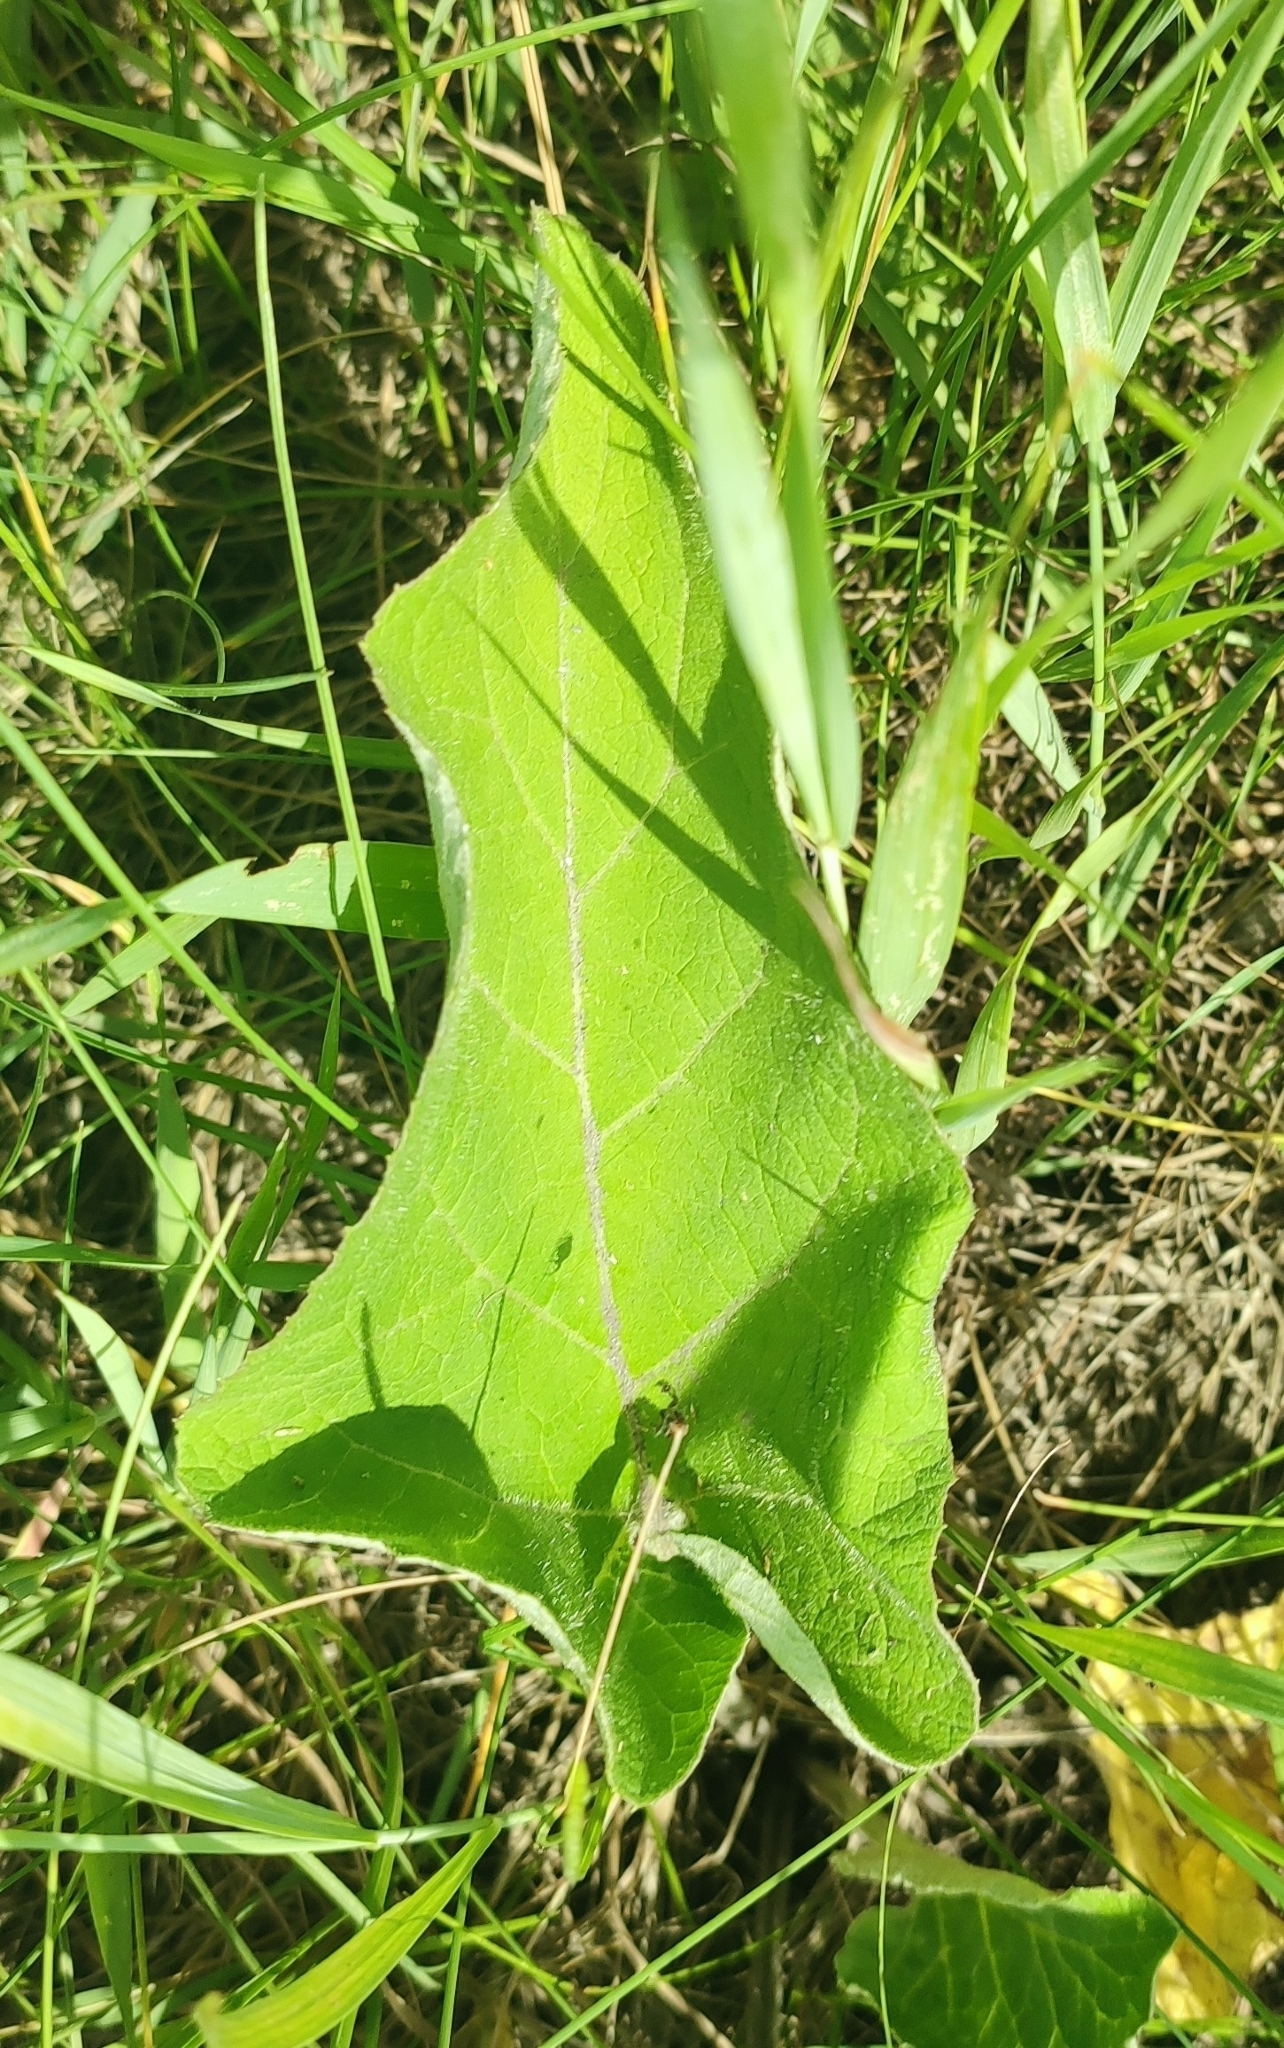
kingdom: Plantae
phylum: Tracheophyta
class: Magnoliopsida
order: Asterales
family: Asteraceae
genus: Arctium
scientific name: Arctium tomentosum
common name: Woolly burdock
